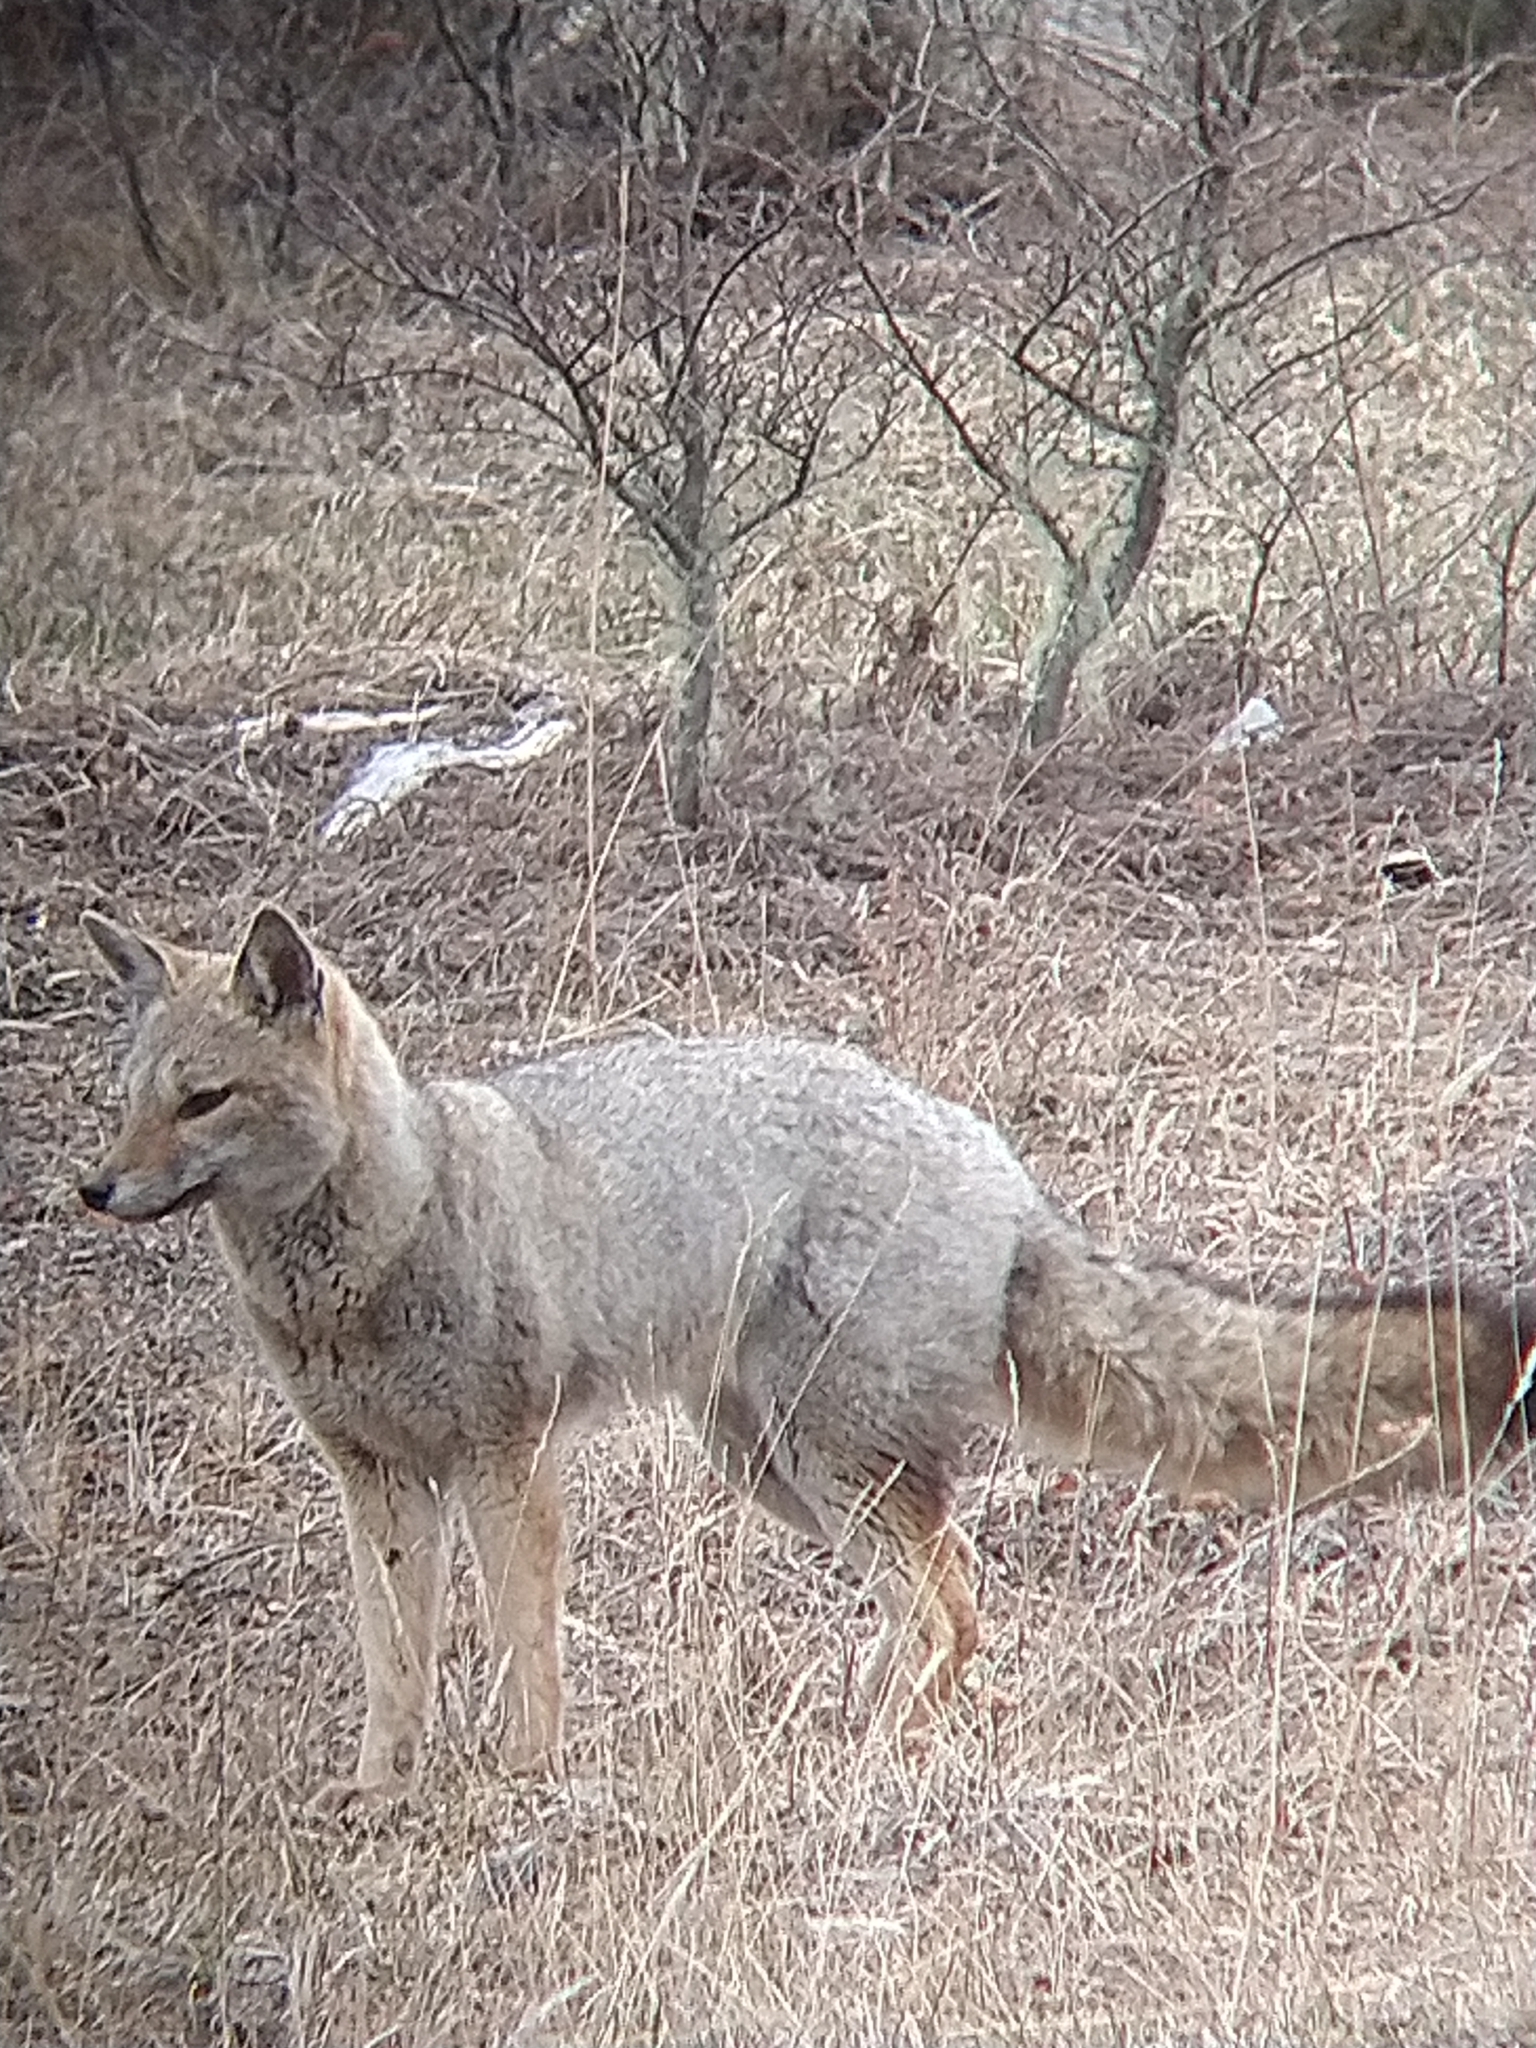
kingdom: Animalia
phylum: Chordata
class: Mammalia
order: Carnivora
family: Canidae
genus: Lycalopex
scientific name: Lycalopex gymnocercus
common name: Pampas fox
